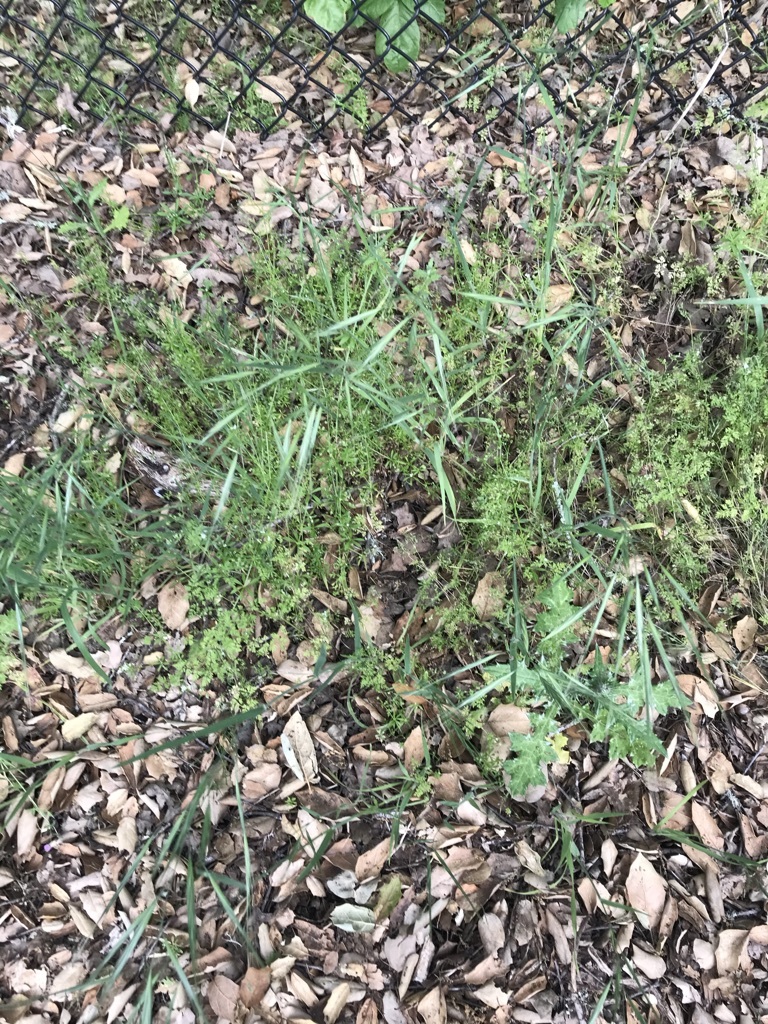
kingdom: Plantae
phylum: Tracheophyta
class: Liliopsida
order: Poales
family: Poaceae
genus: Bromus
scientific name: Bromus diandrus
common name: Ripgut brome
